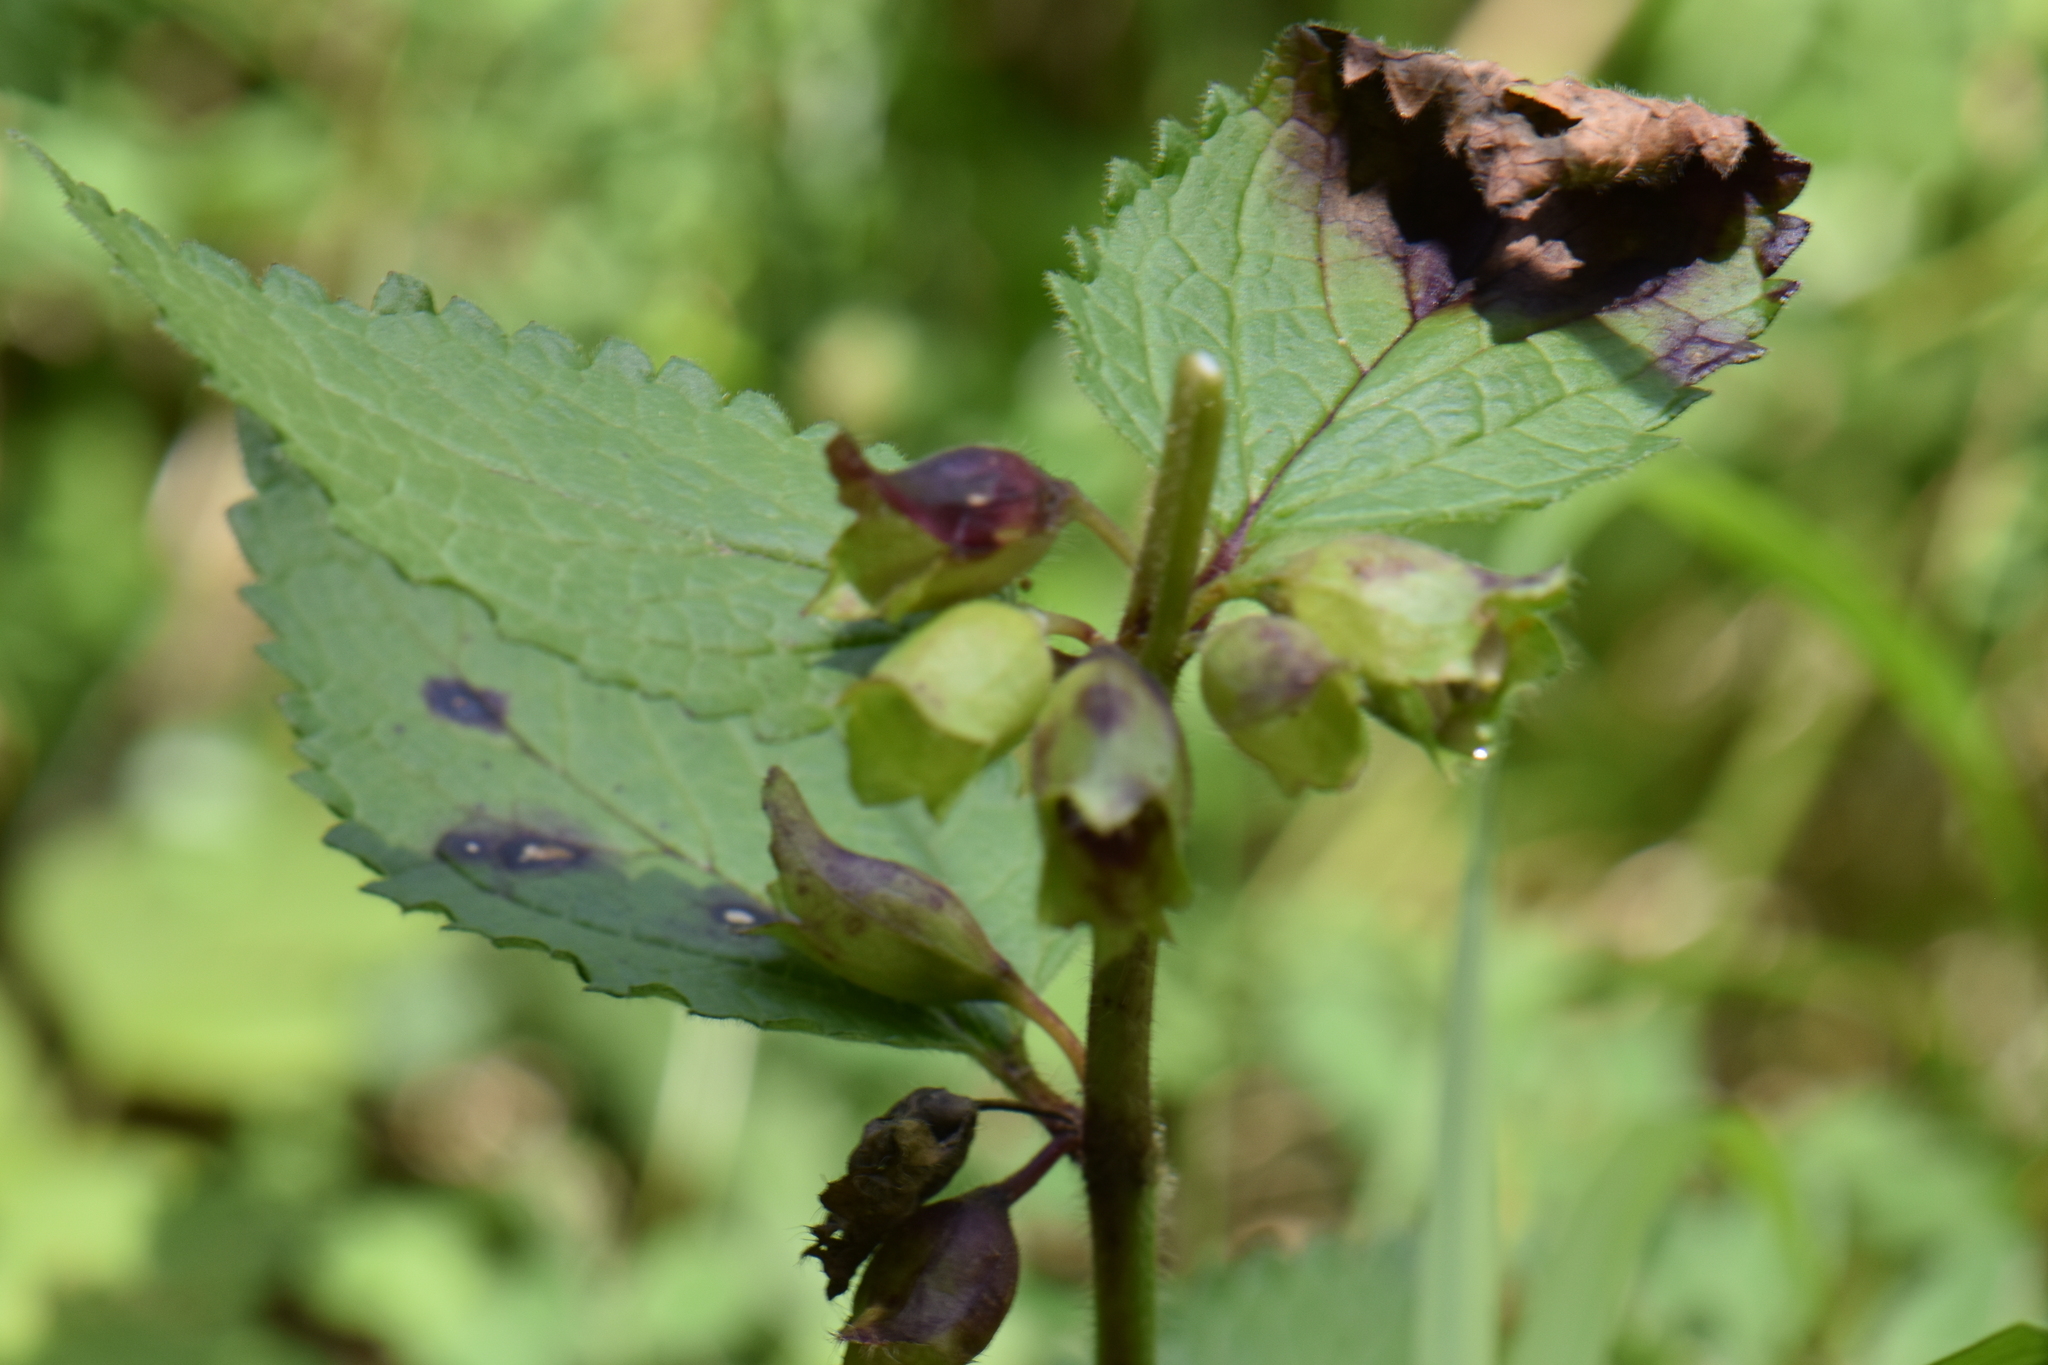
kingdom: Plantae
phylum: Tracheophyta
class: Magnoliopsida
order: Lamiales
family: Lamiaceae
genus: Melittis
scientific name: Melittis melissophyllum
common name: Bastard balm
